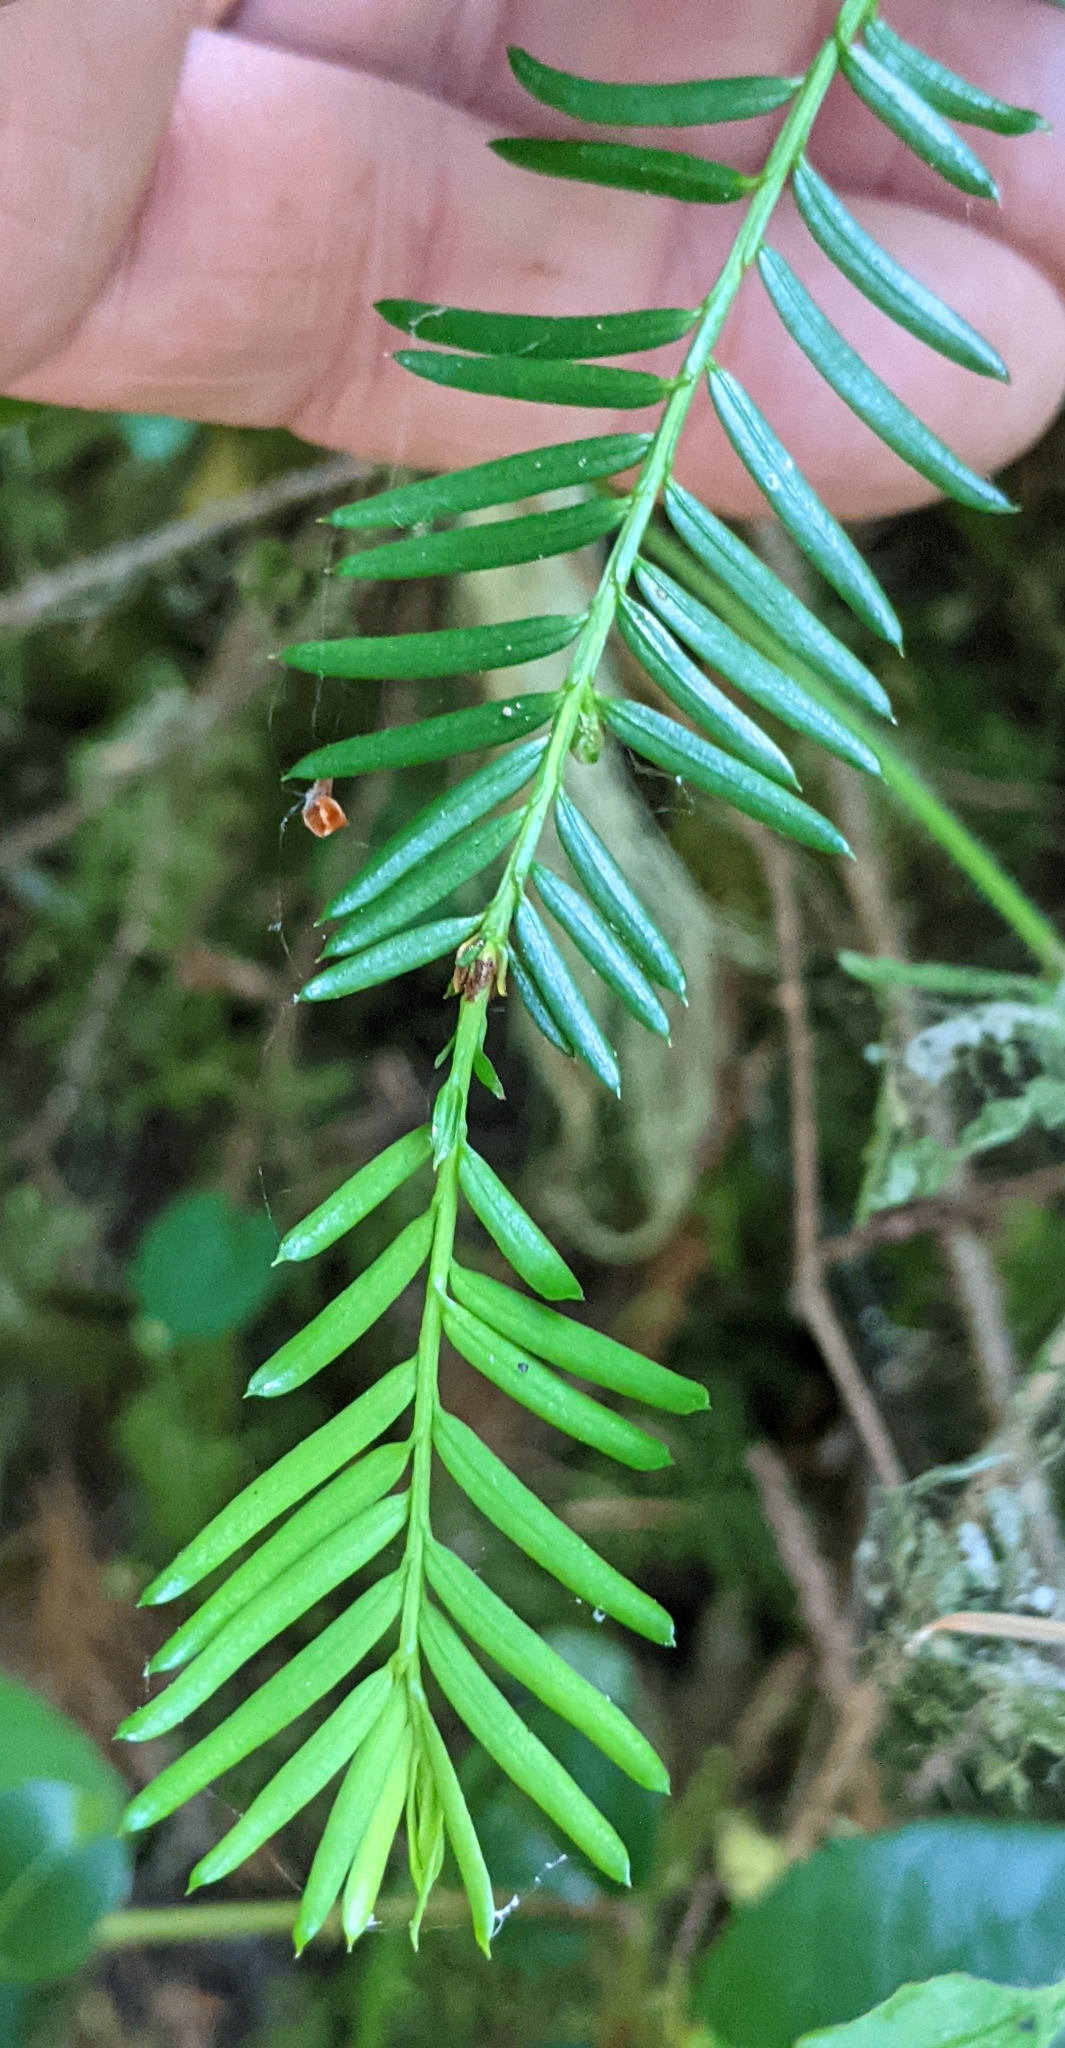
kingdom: Plantae
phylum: Tracheophyta
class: Pinopsida
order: Pinales
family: Taxaceae
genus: Taxus
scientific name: Taxus brevifolia
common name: Pacific yew
